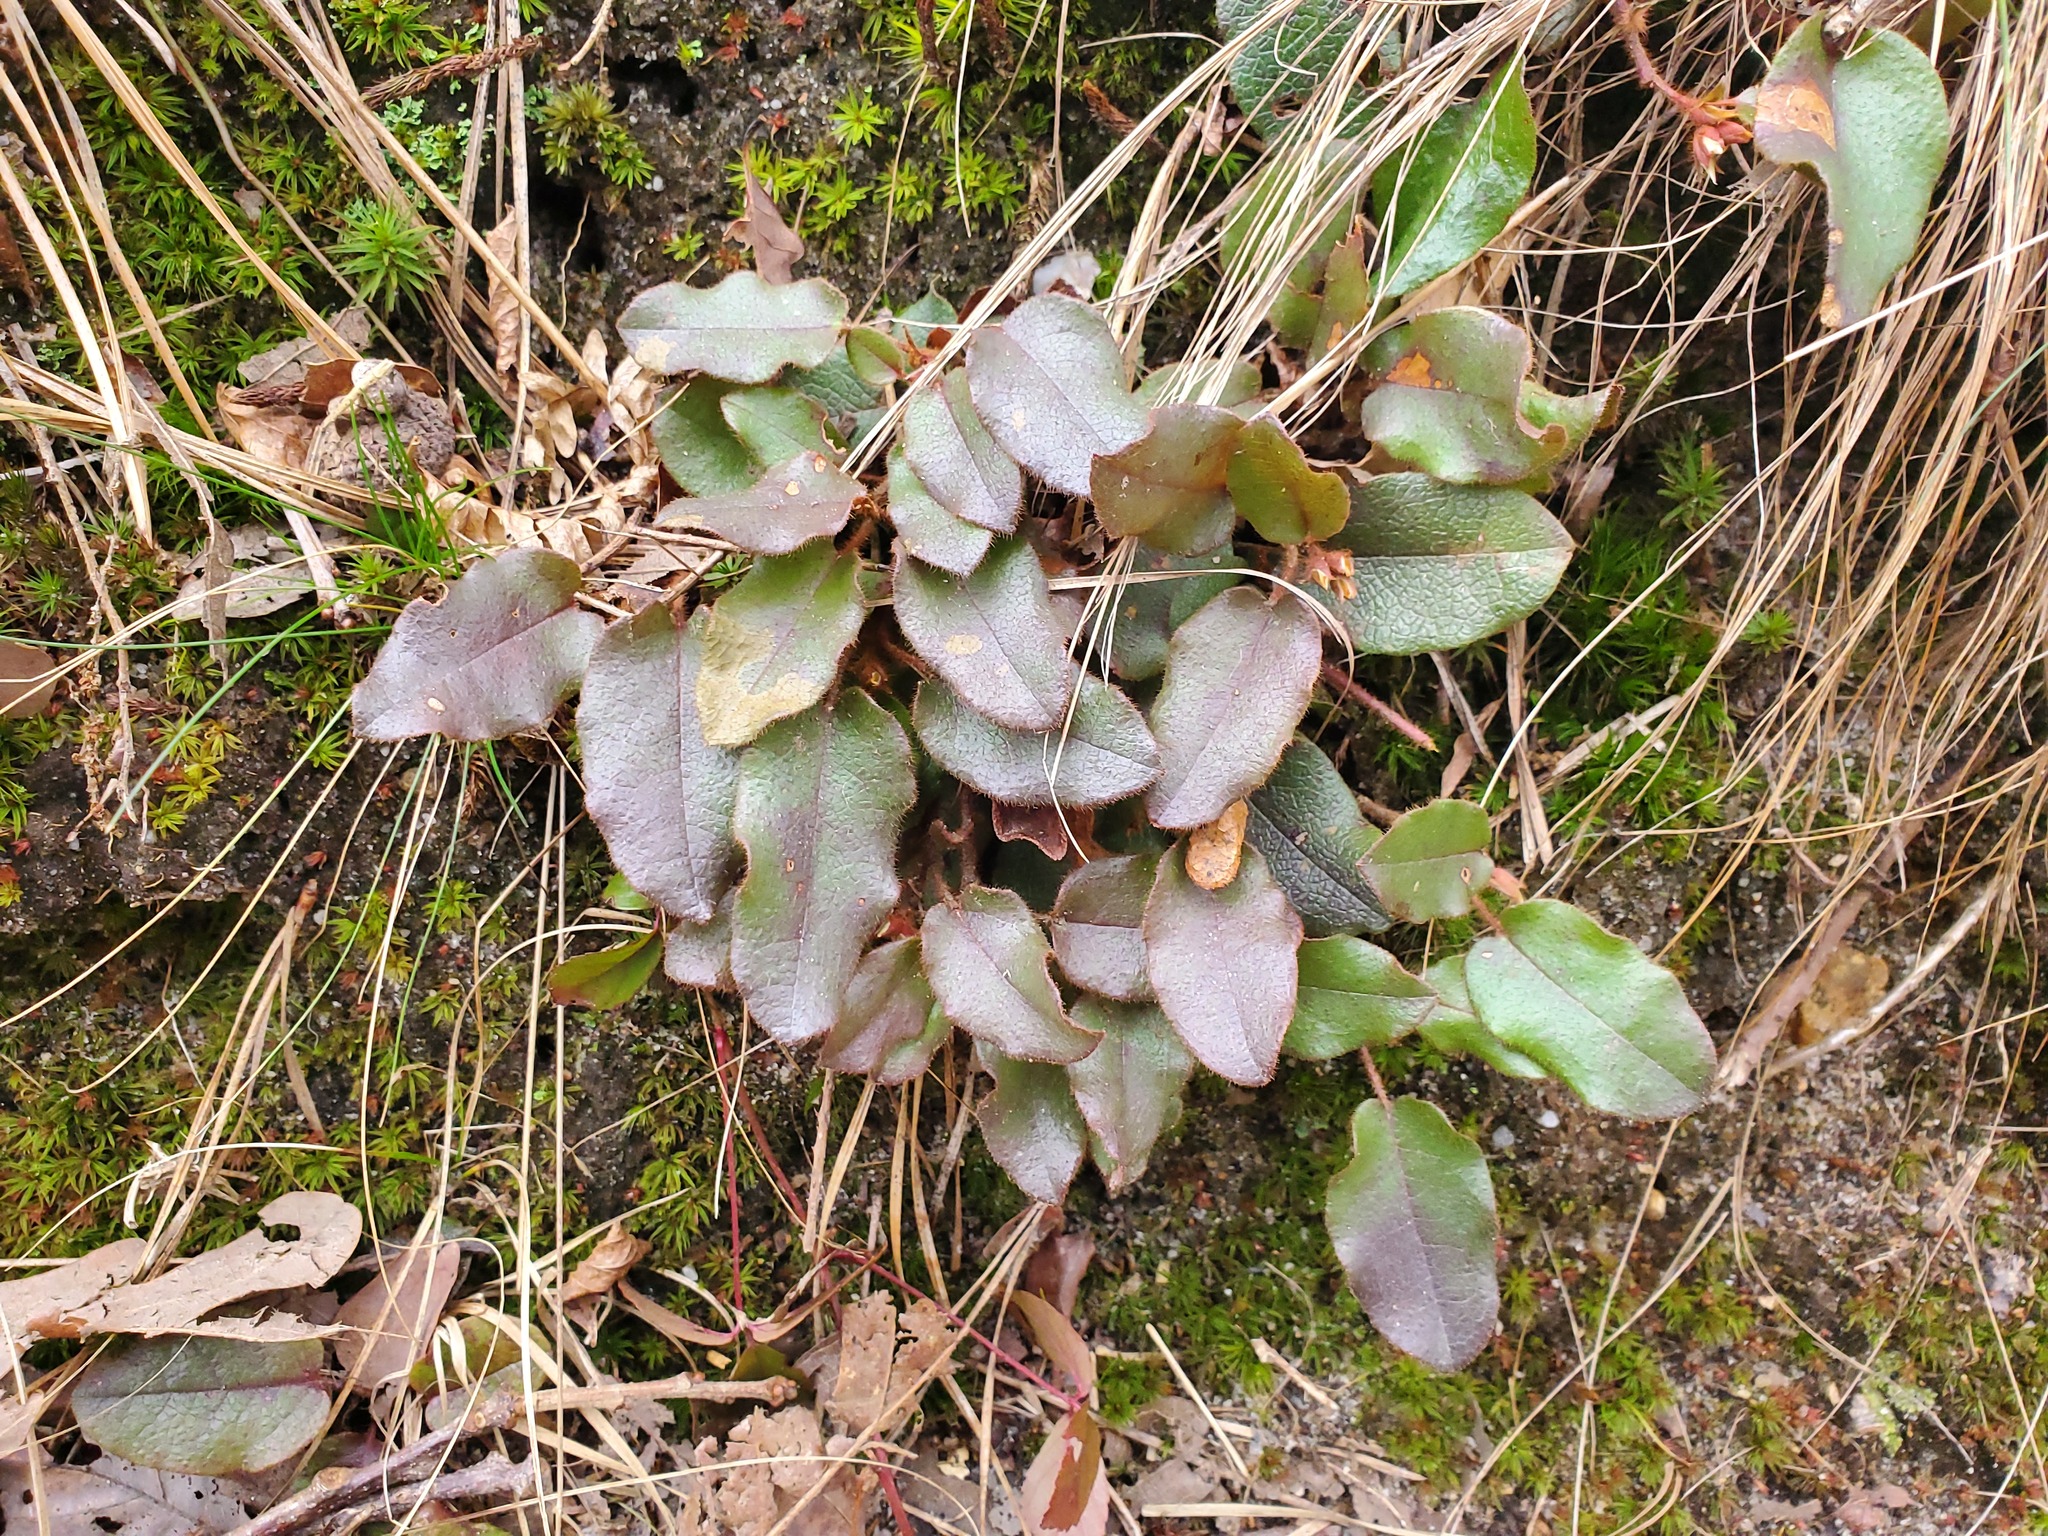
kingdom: Plantae
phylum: Tracheophyta
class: Magnoliopsida
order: Ericales
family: Ericaceae
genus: Epigaea
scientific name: Epigaea repens
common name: Gravelroot
